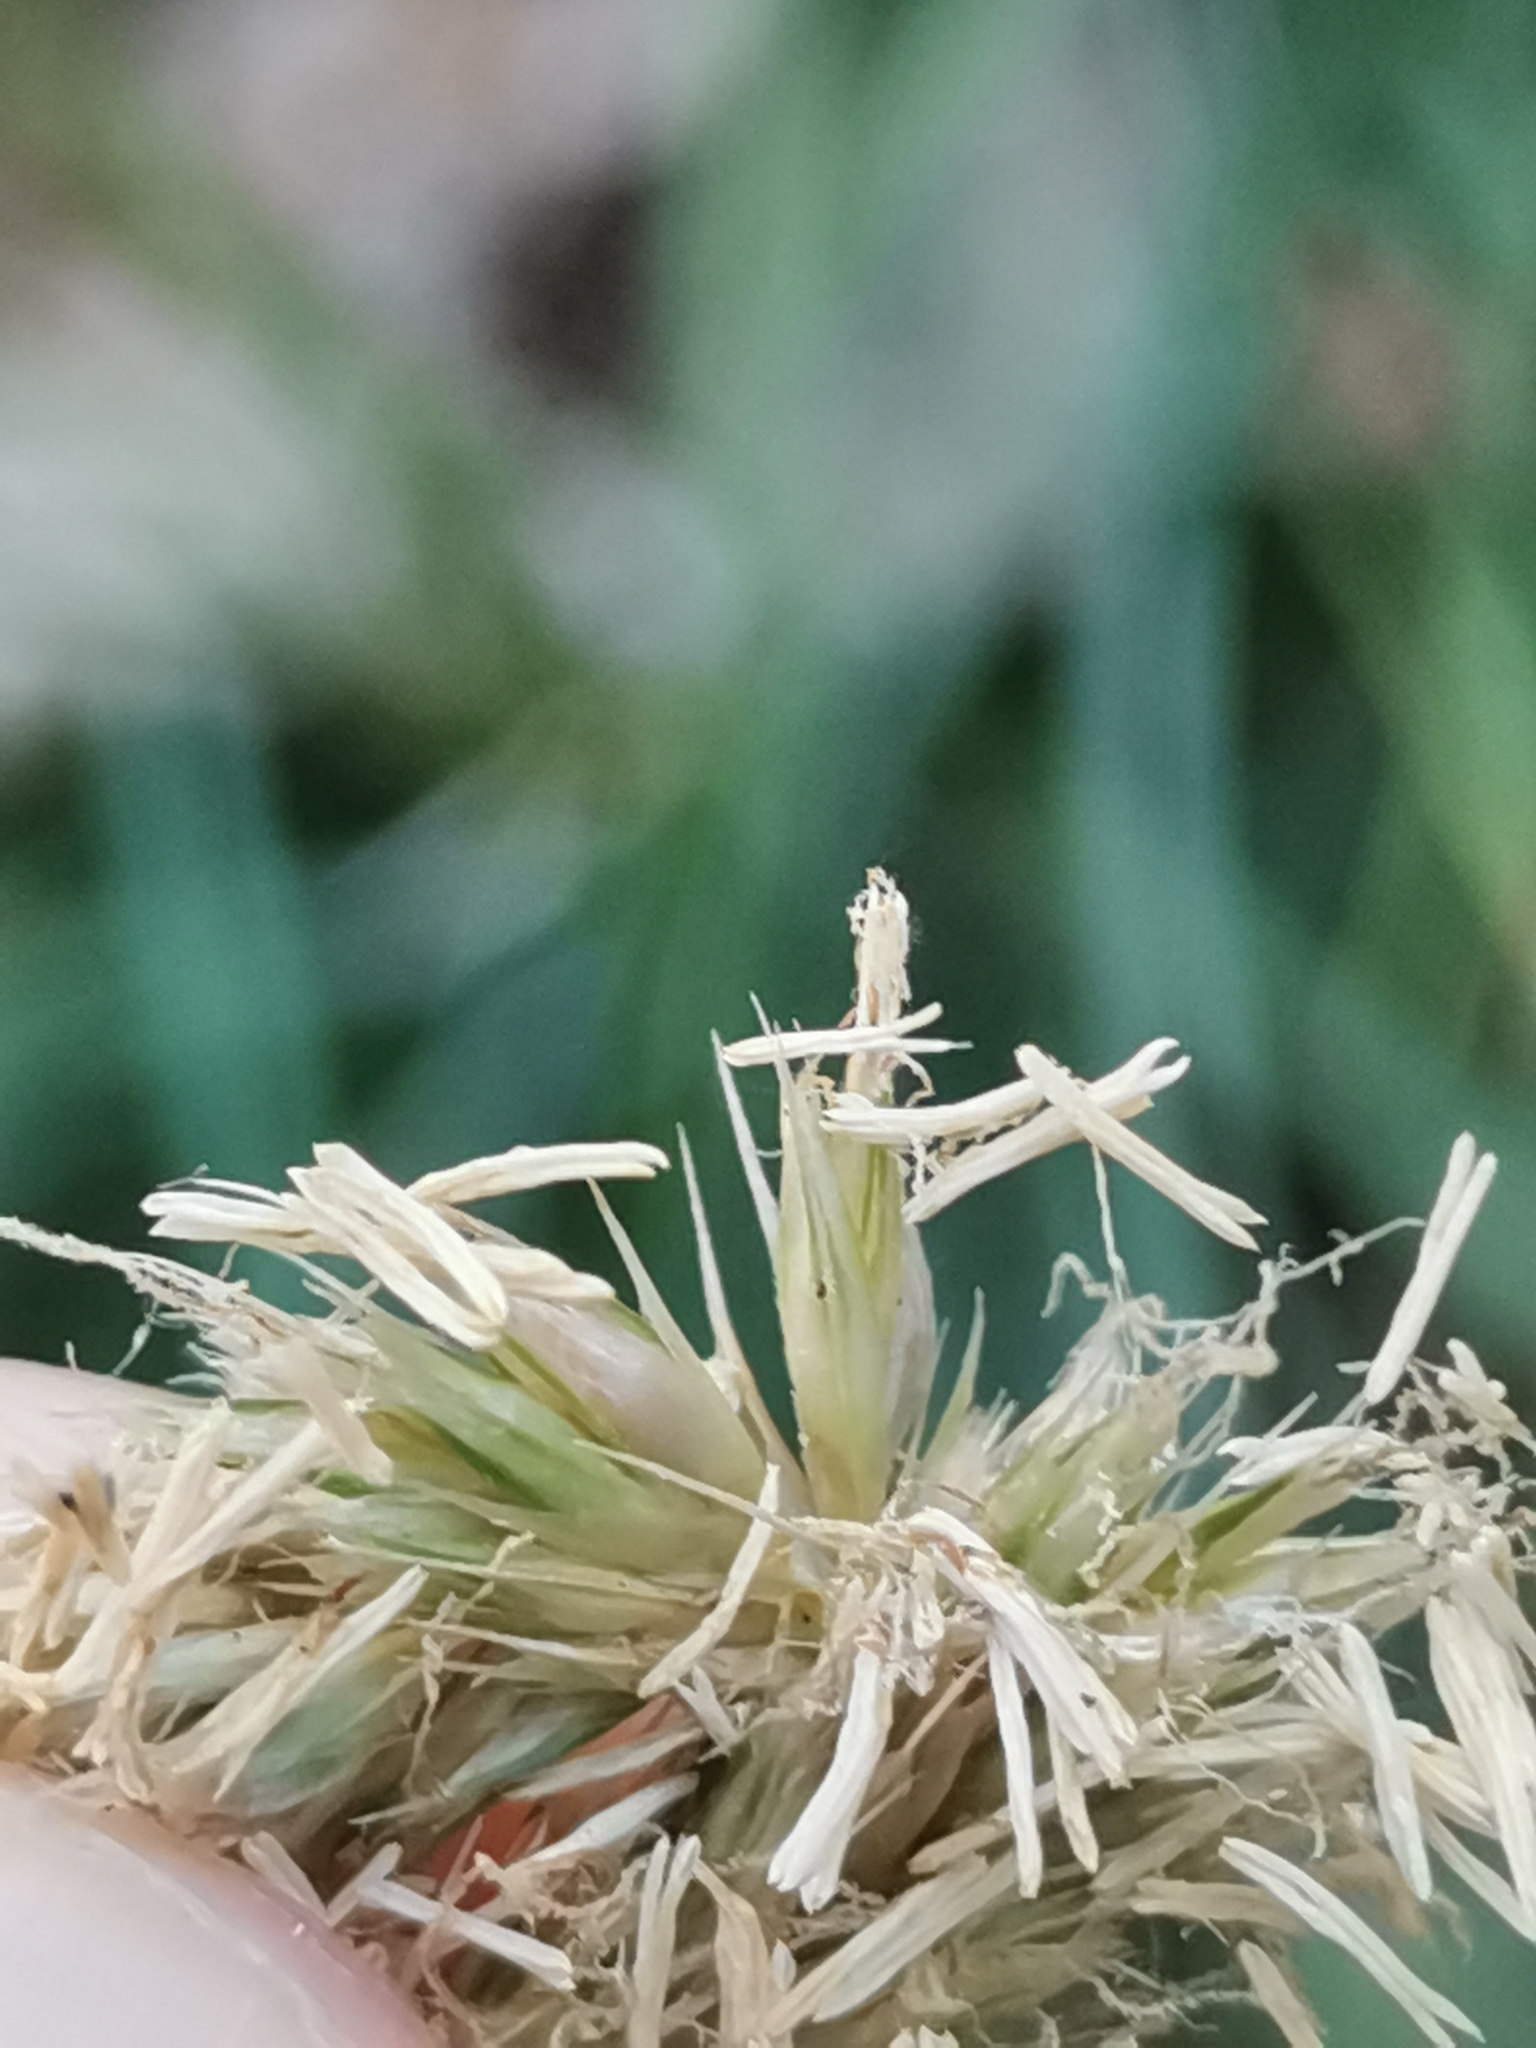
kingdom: Plantae
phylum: Tracheophyta
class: Liliopsida
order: Poales
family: Poaceae
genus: Sesleria
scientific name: Sesleria autumnalis
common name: Autumn moor grass
